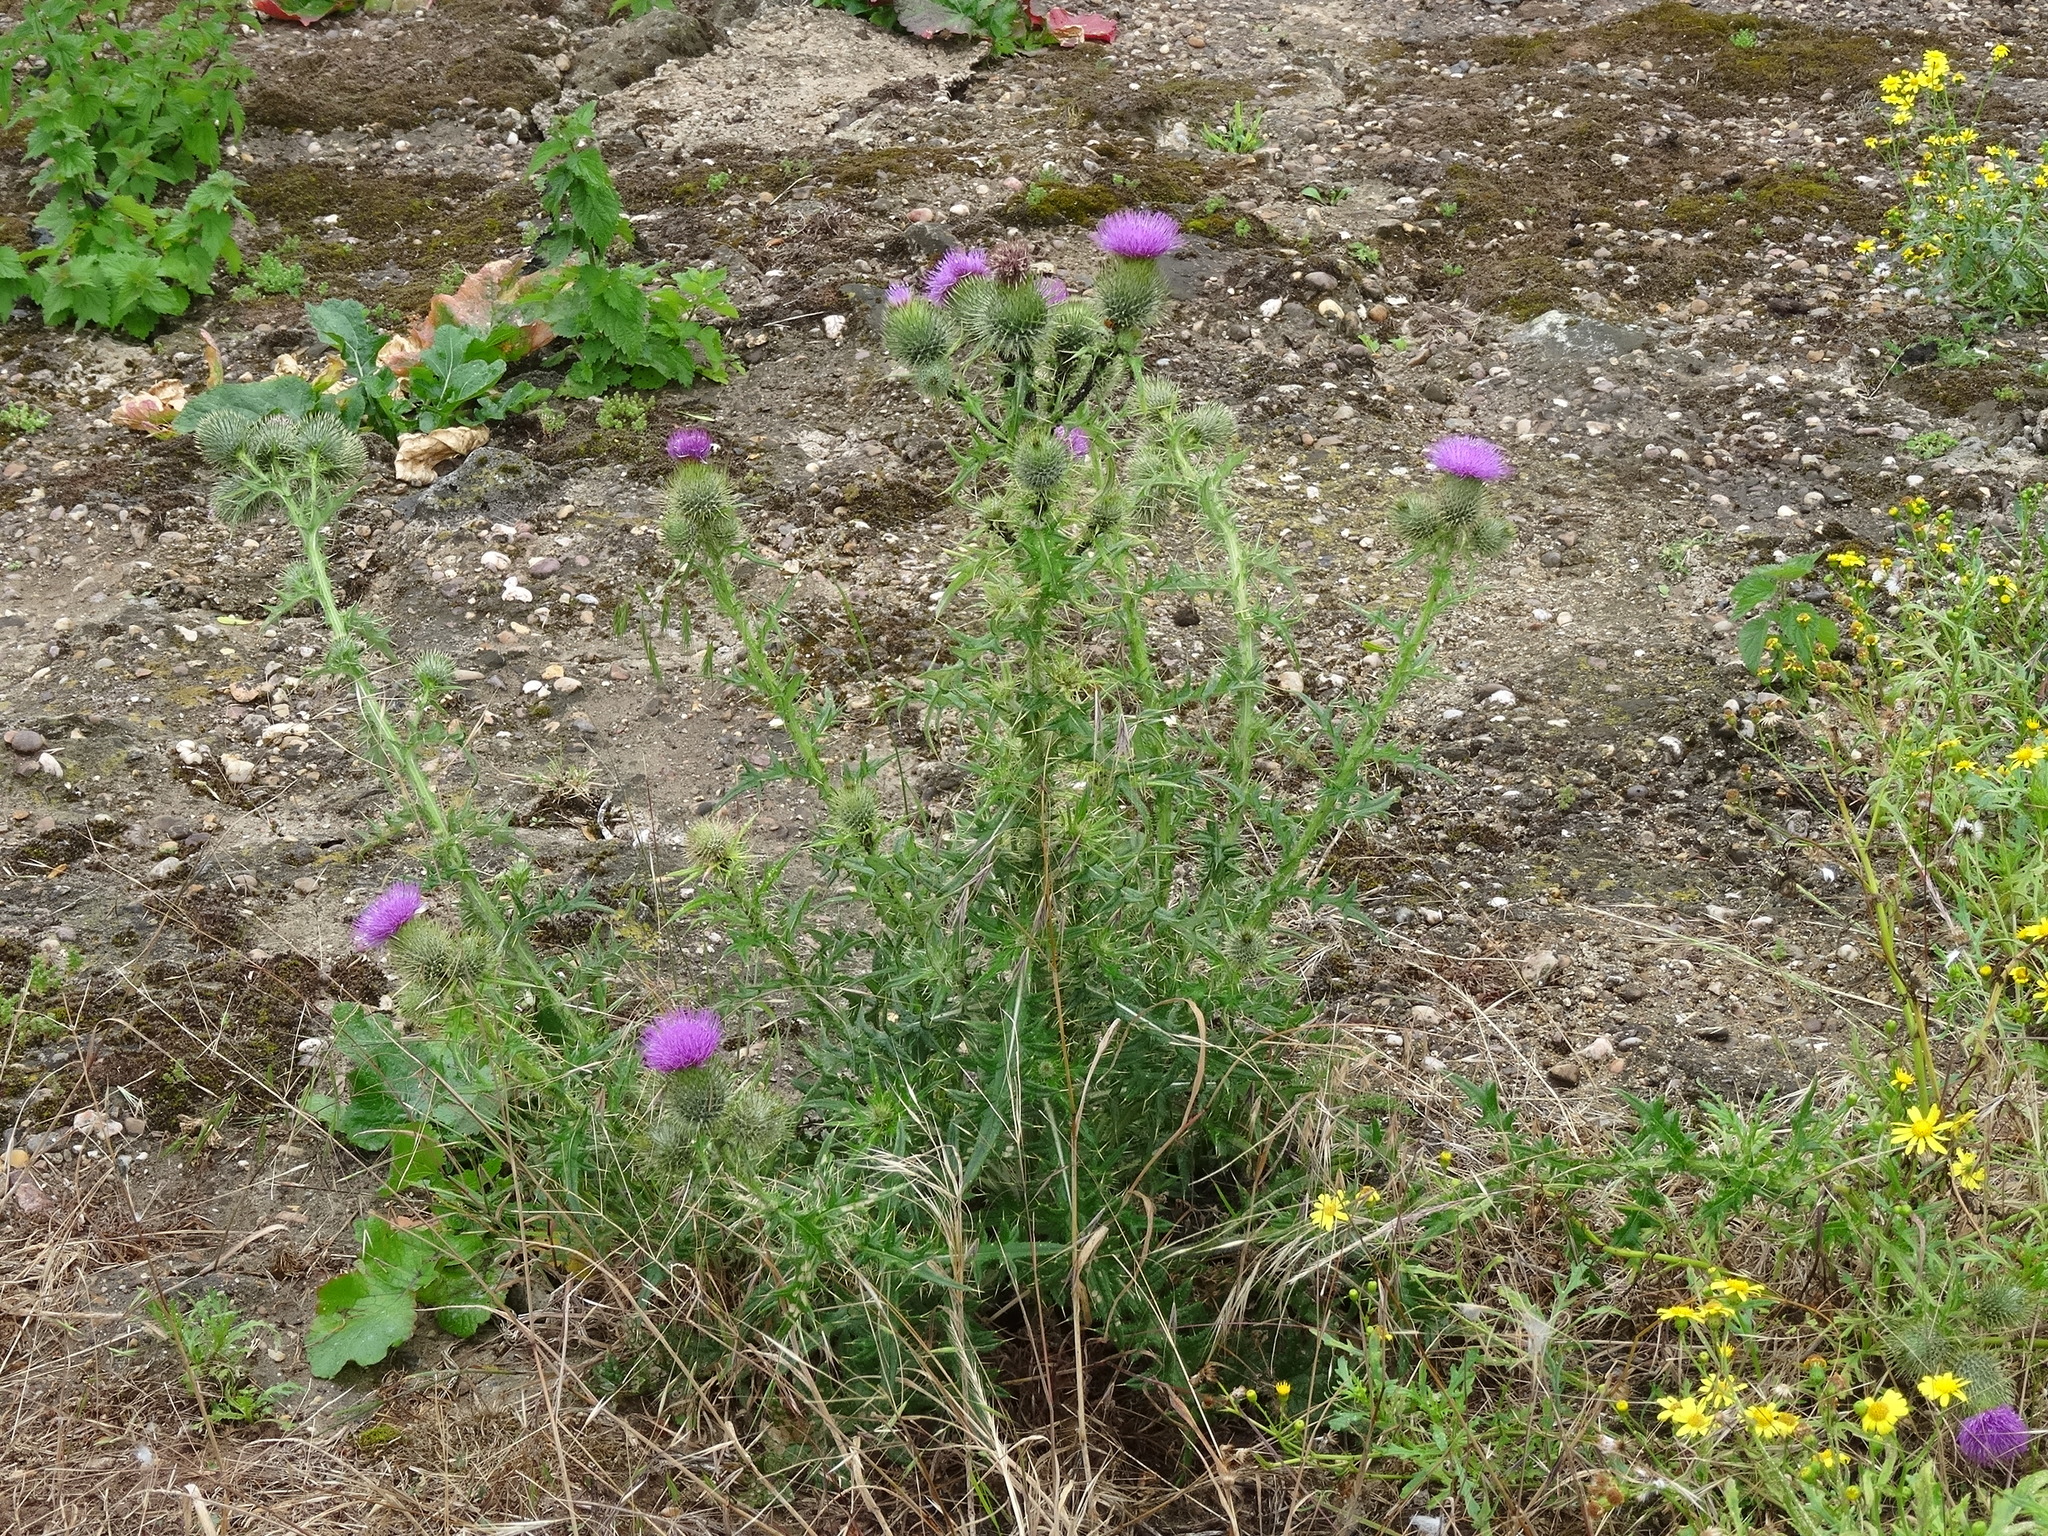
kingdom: Plantae
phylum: Tracheophyta
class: Magnoliopsida
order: Asterales
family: Asteraceae
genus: Cirsium
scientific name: Cirsium vulgare
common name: Bull thistle
